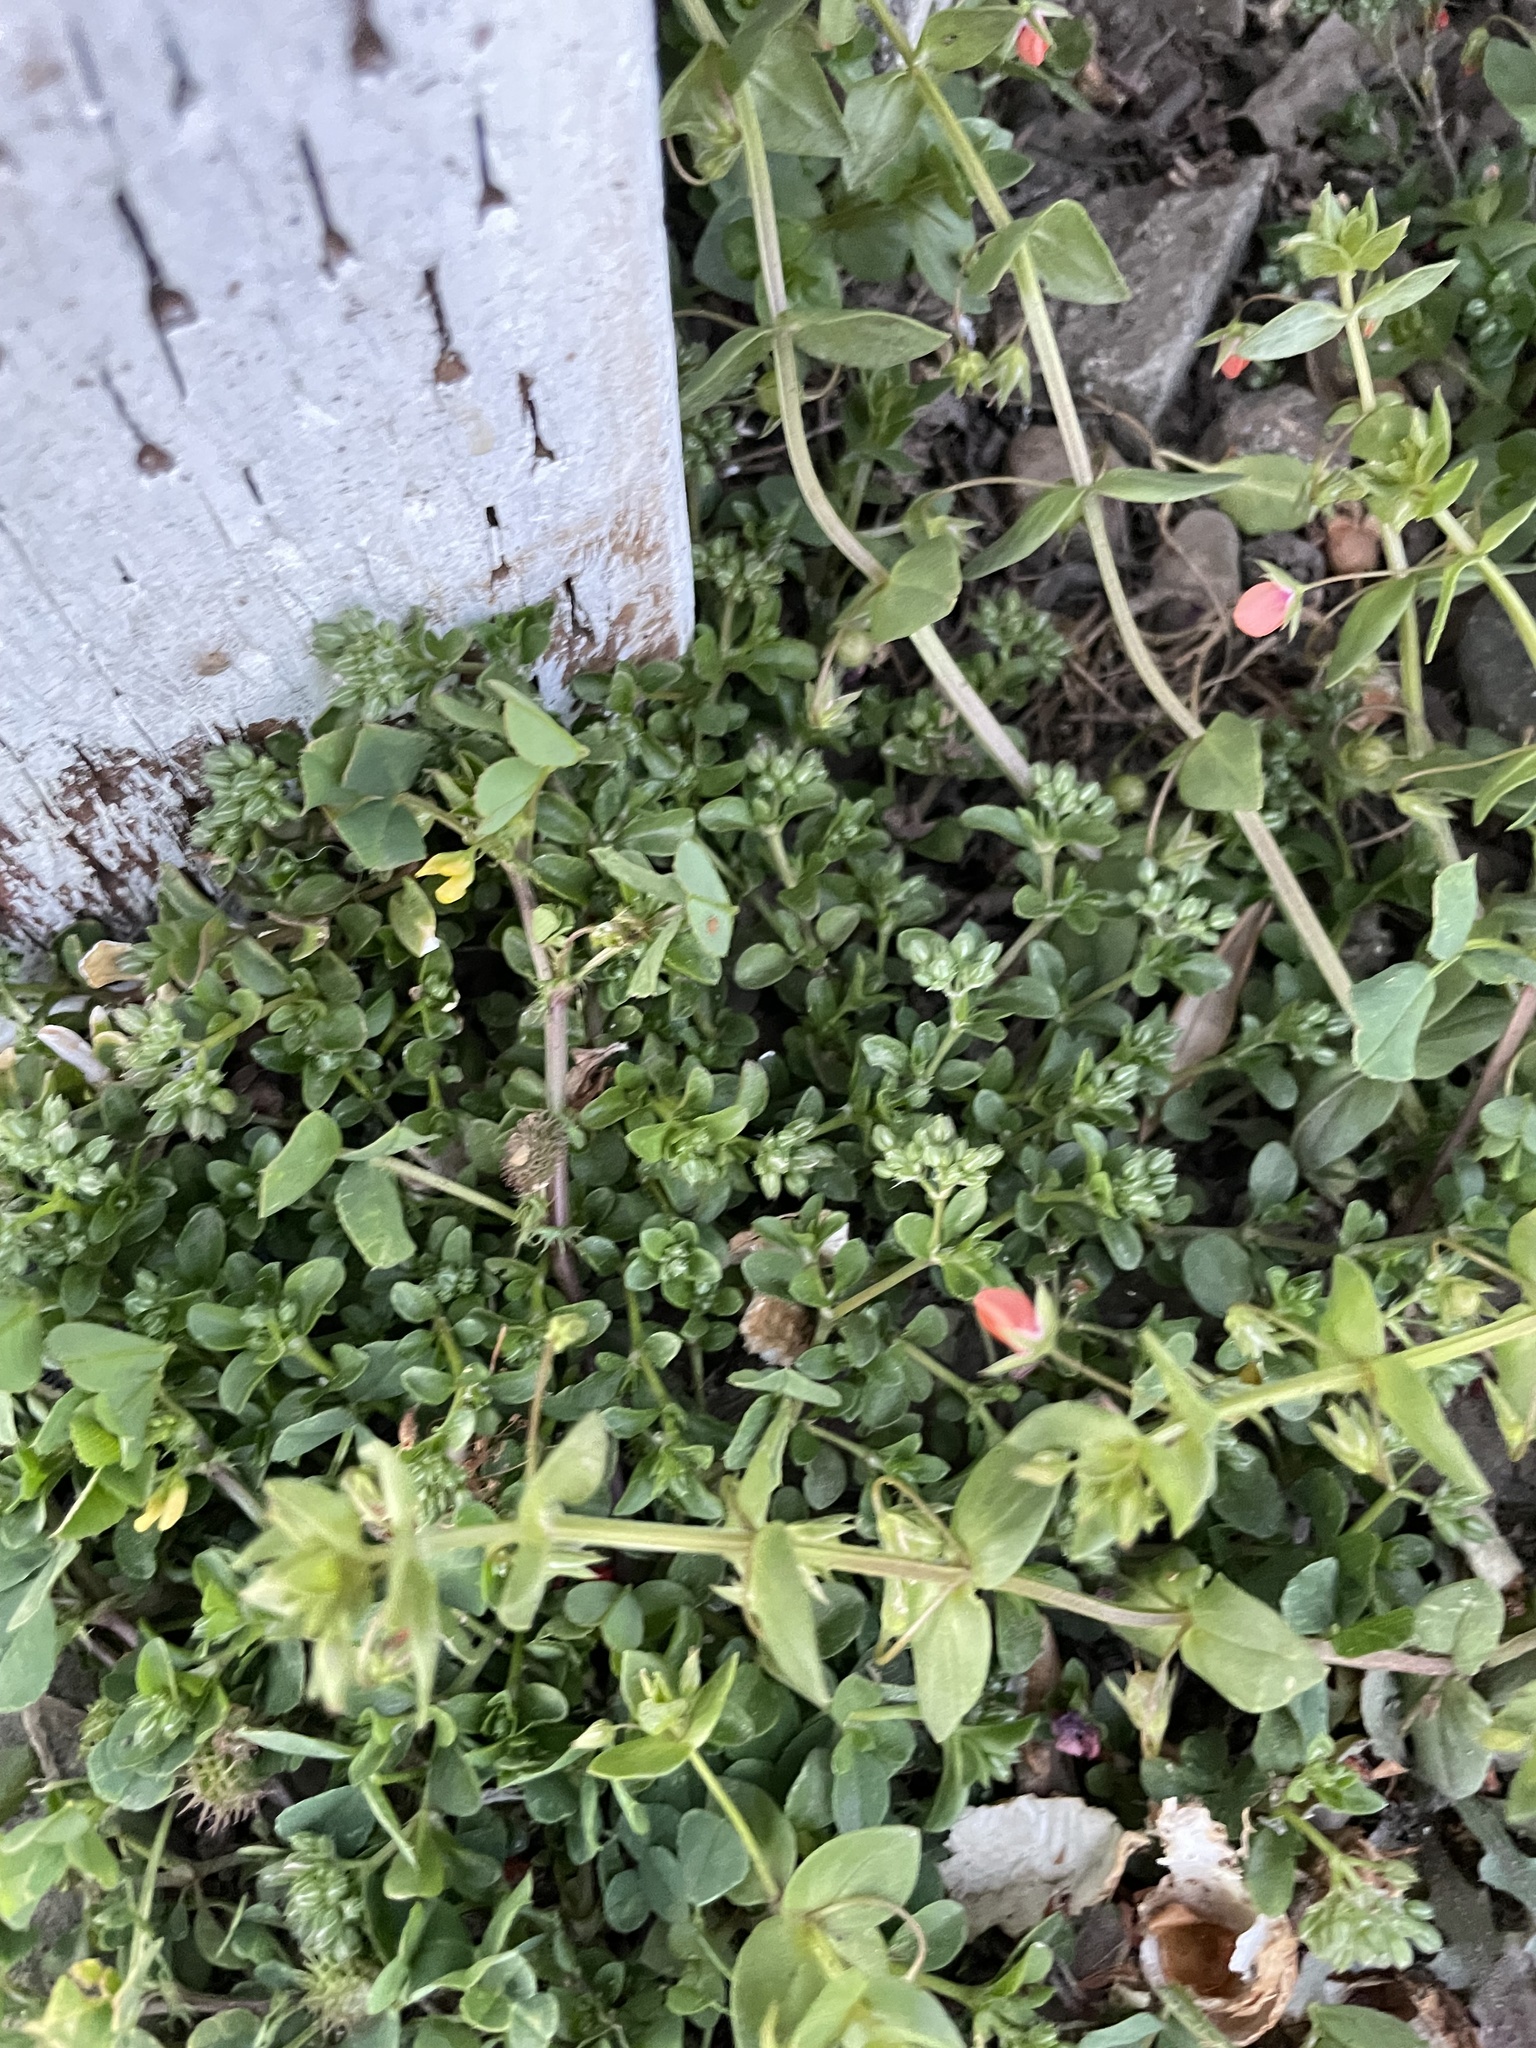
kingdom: Plantae
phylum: Tracheophyta
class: Magnoliopsida
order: Caryophyllales
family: Caryophyllaceae
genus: Polycarpon
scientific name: Polycarpon tetraphyllum
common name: Four-leaved all-seed
